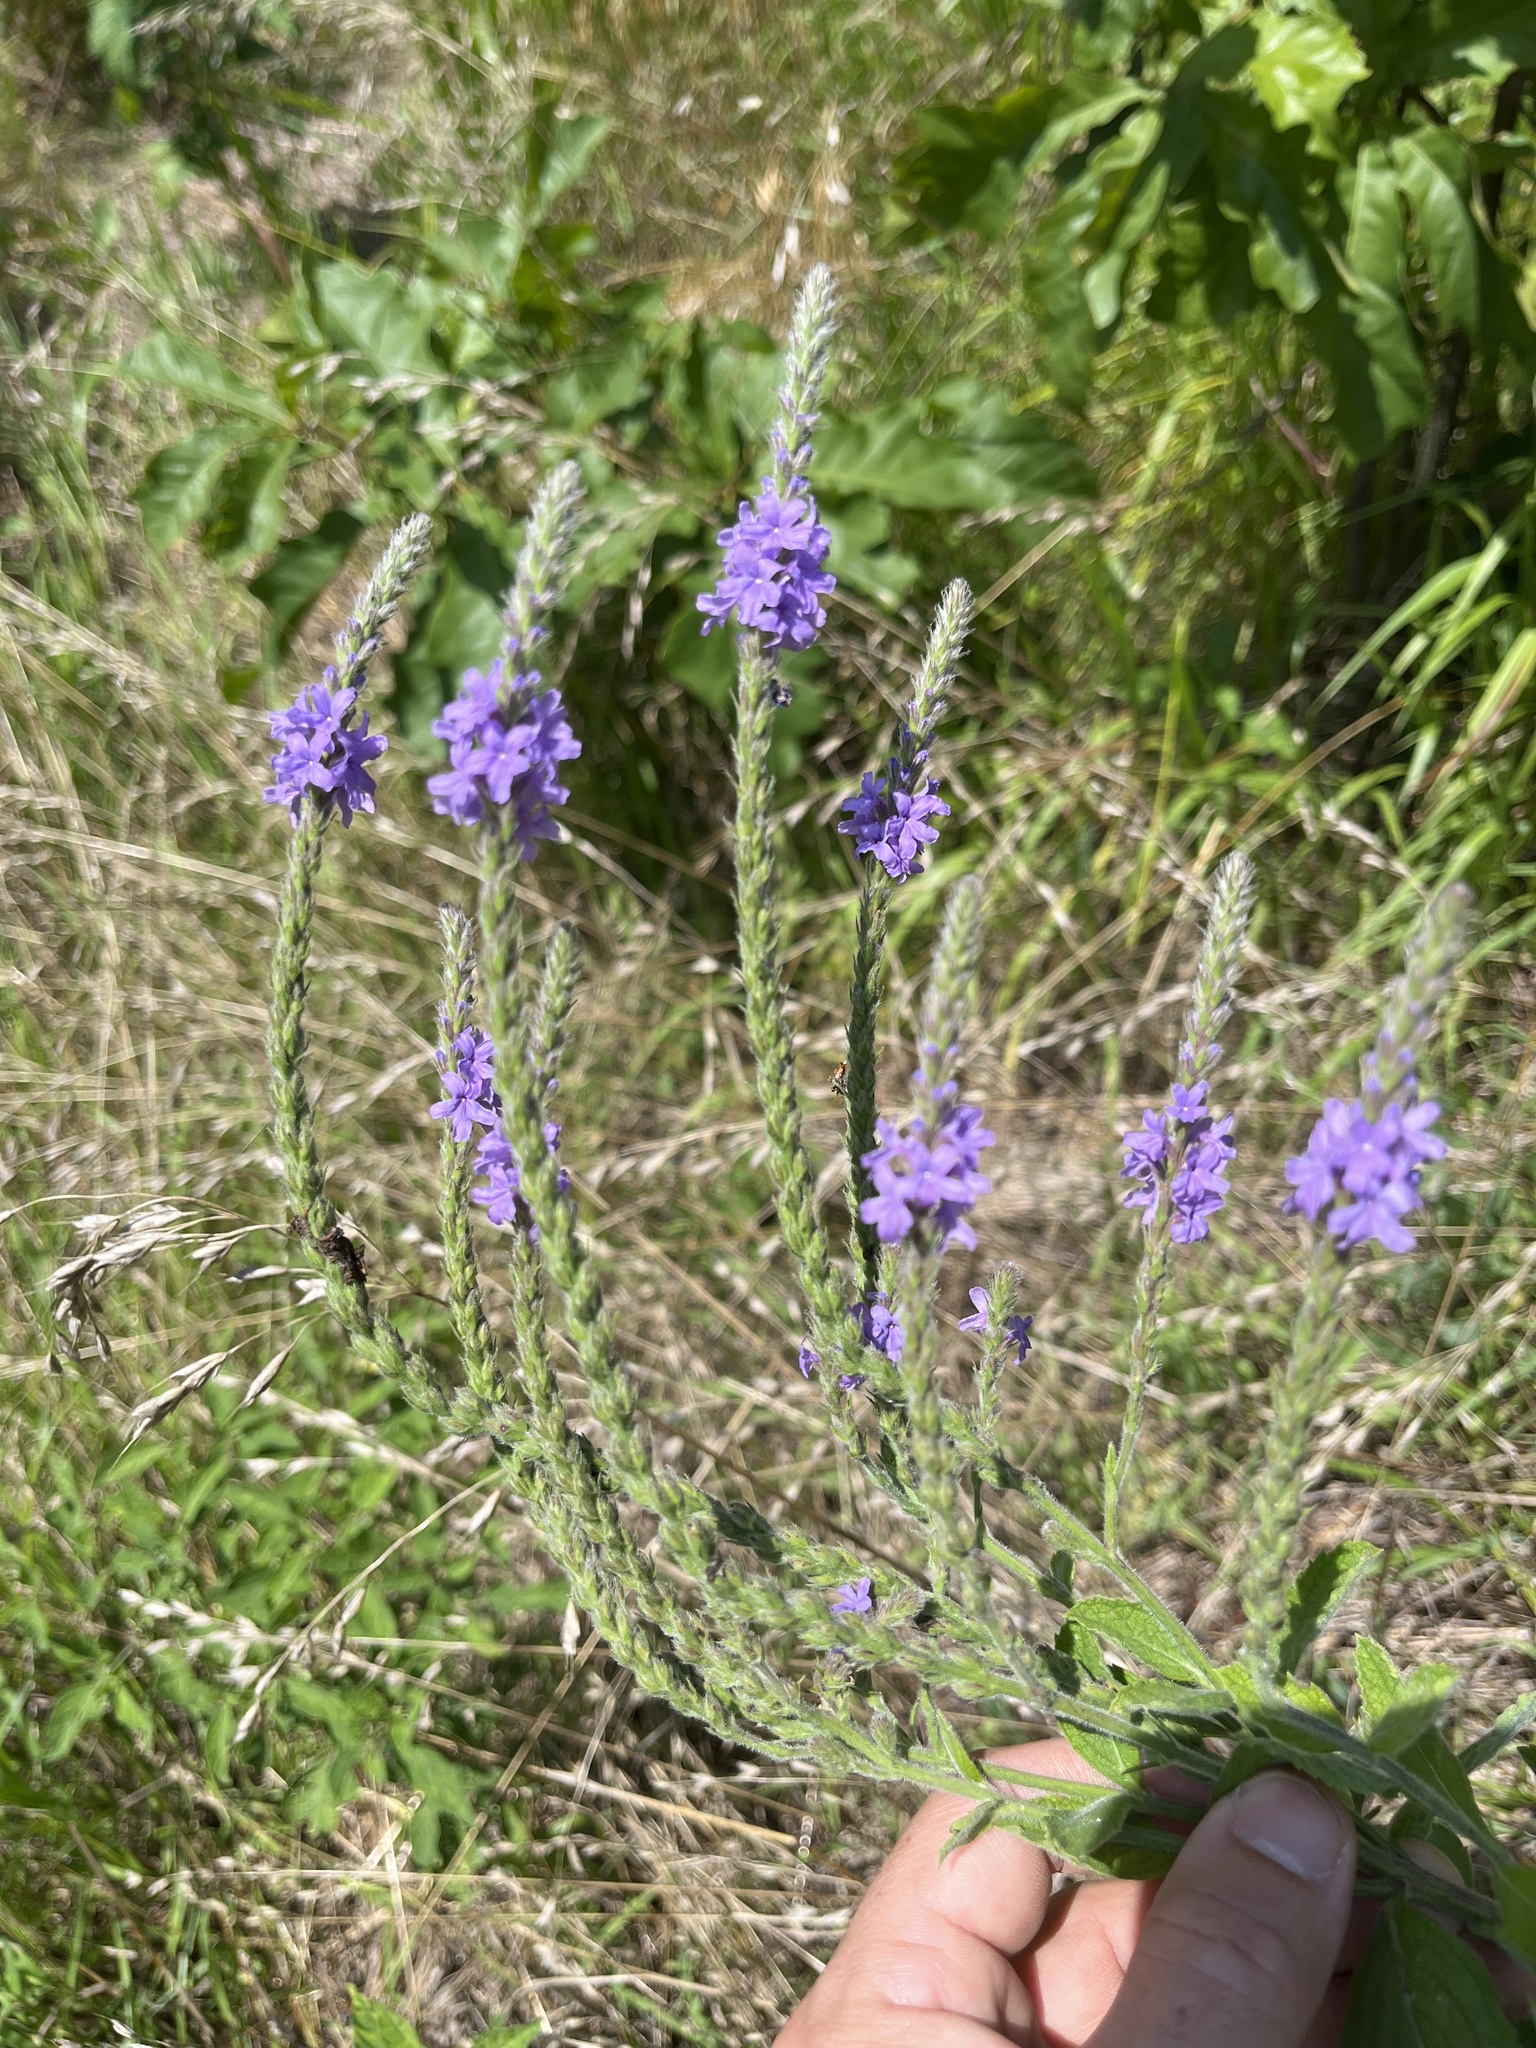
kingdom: Plantae
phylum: Tracheophyta
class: Magnoliopsida
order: Lamiales
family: Verbenaceae
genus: Verbena
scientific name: Verbena stricta
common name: Hoary vervain
